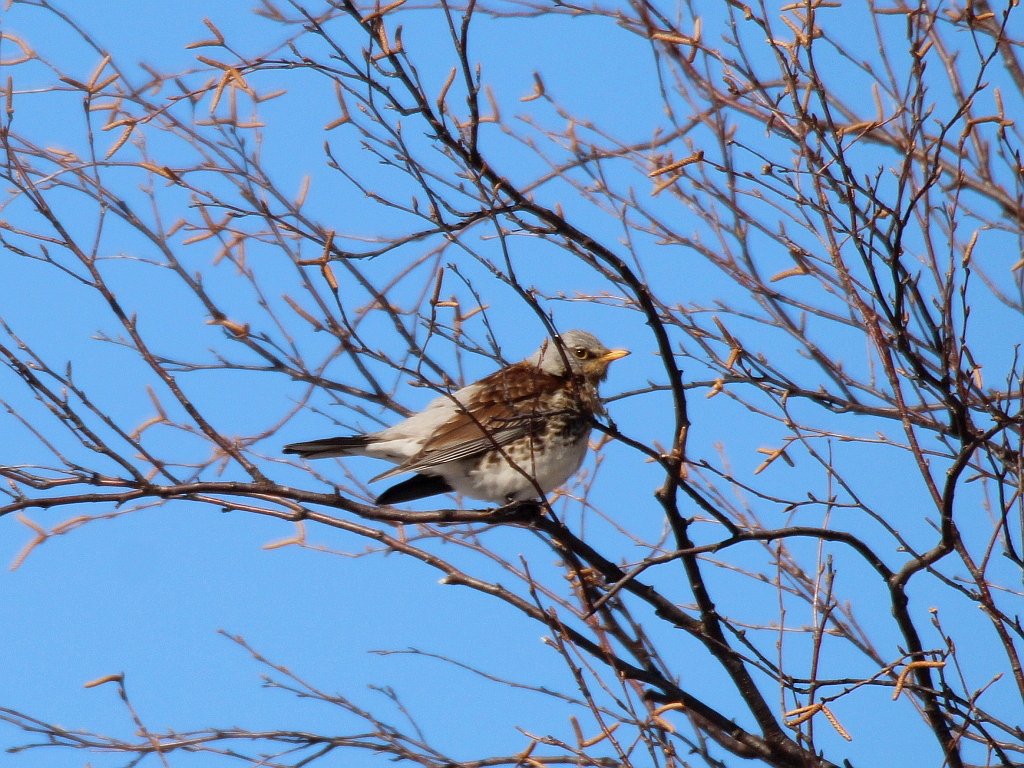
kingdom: Animalia
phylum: Chordata
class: Aves
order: Passeriformes
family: Turdidae
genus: Turdus
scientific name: Turdus pilaris
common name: Fieldfare
